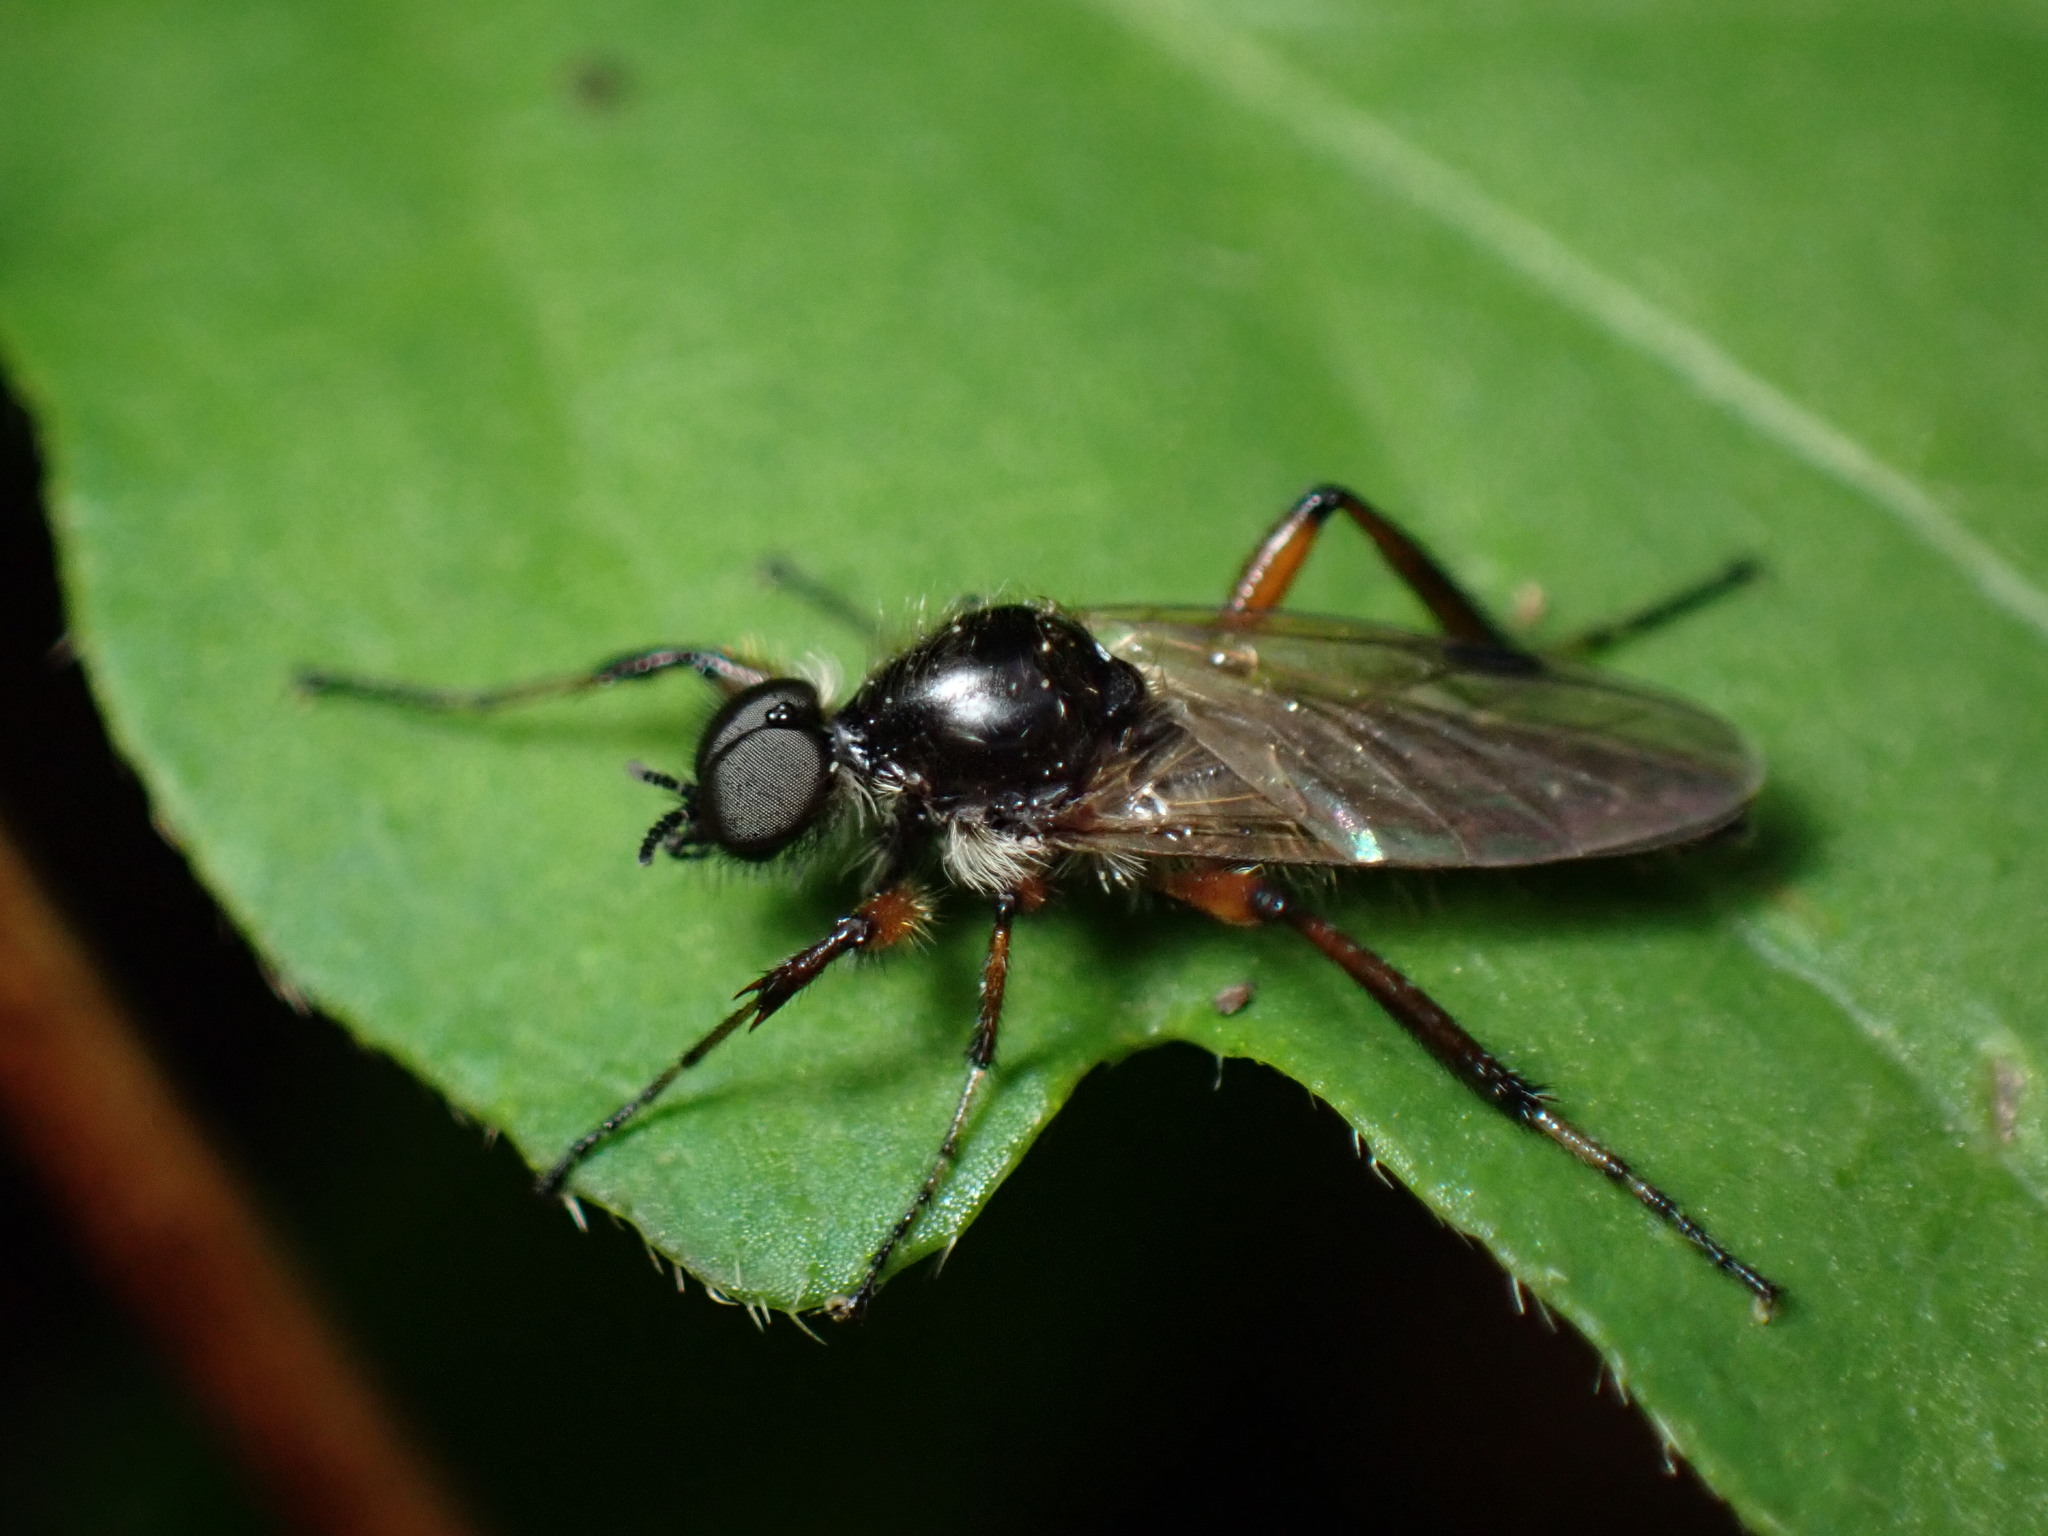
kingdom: Animalia
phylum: Arthropoda
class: Insecta
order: Diptera
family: Bibionidae
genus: Bibio
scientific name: Bibio articulatus
